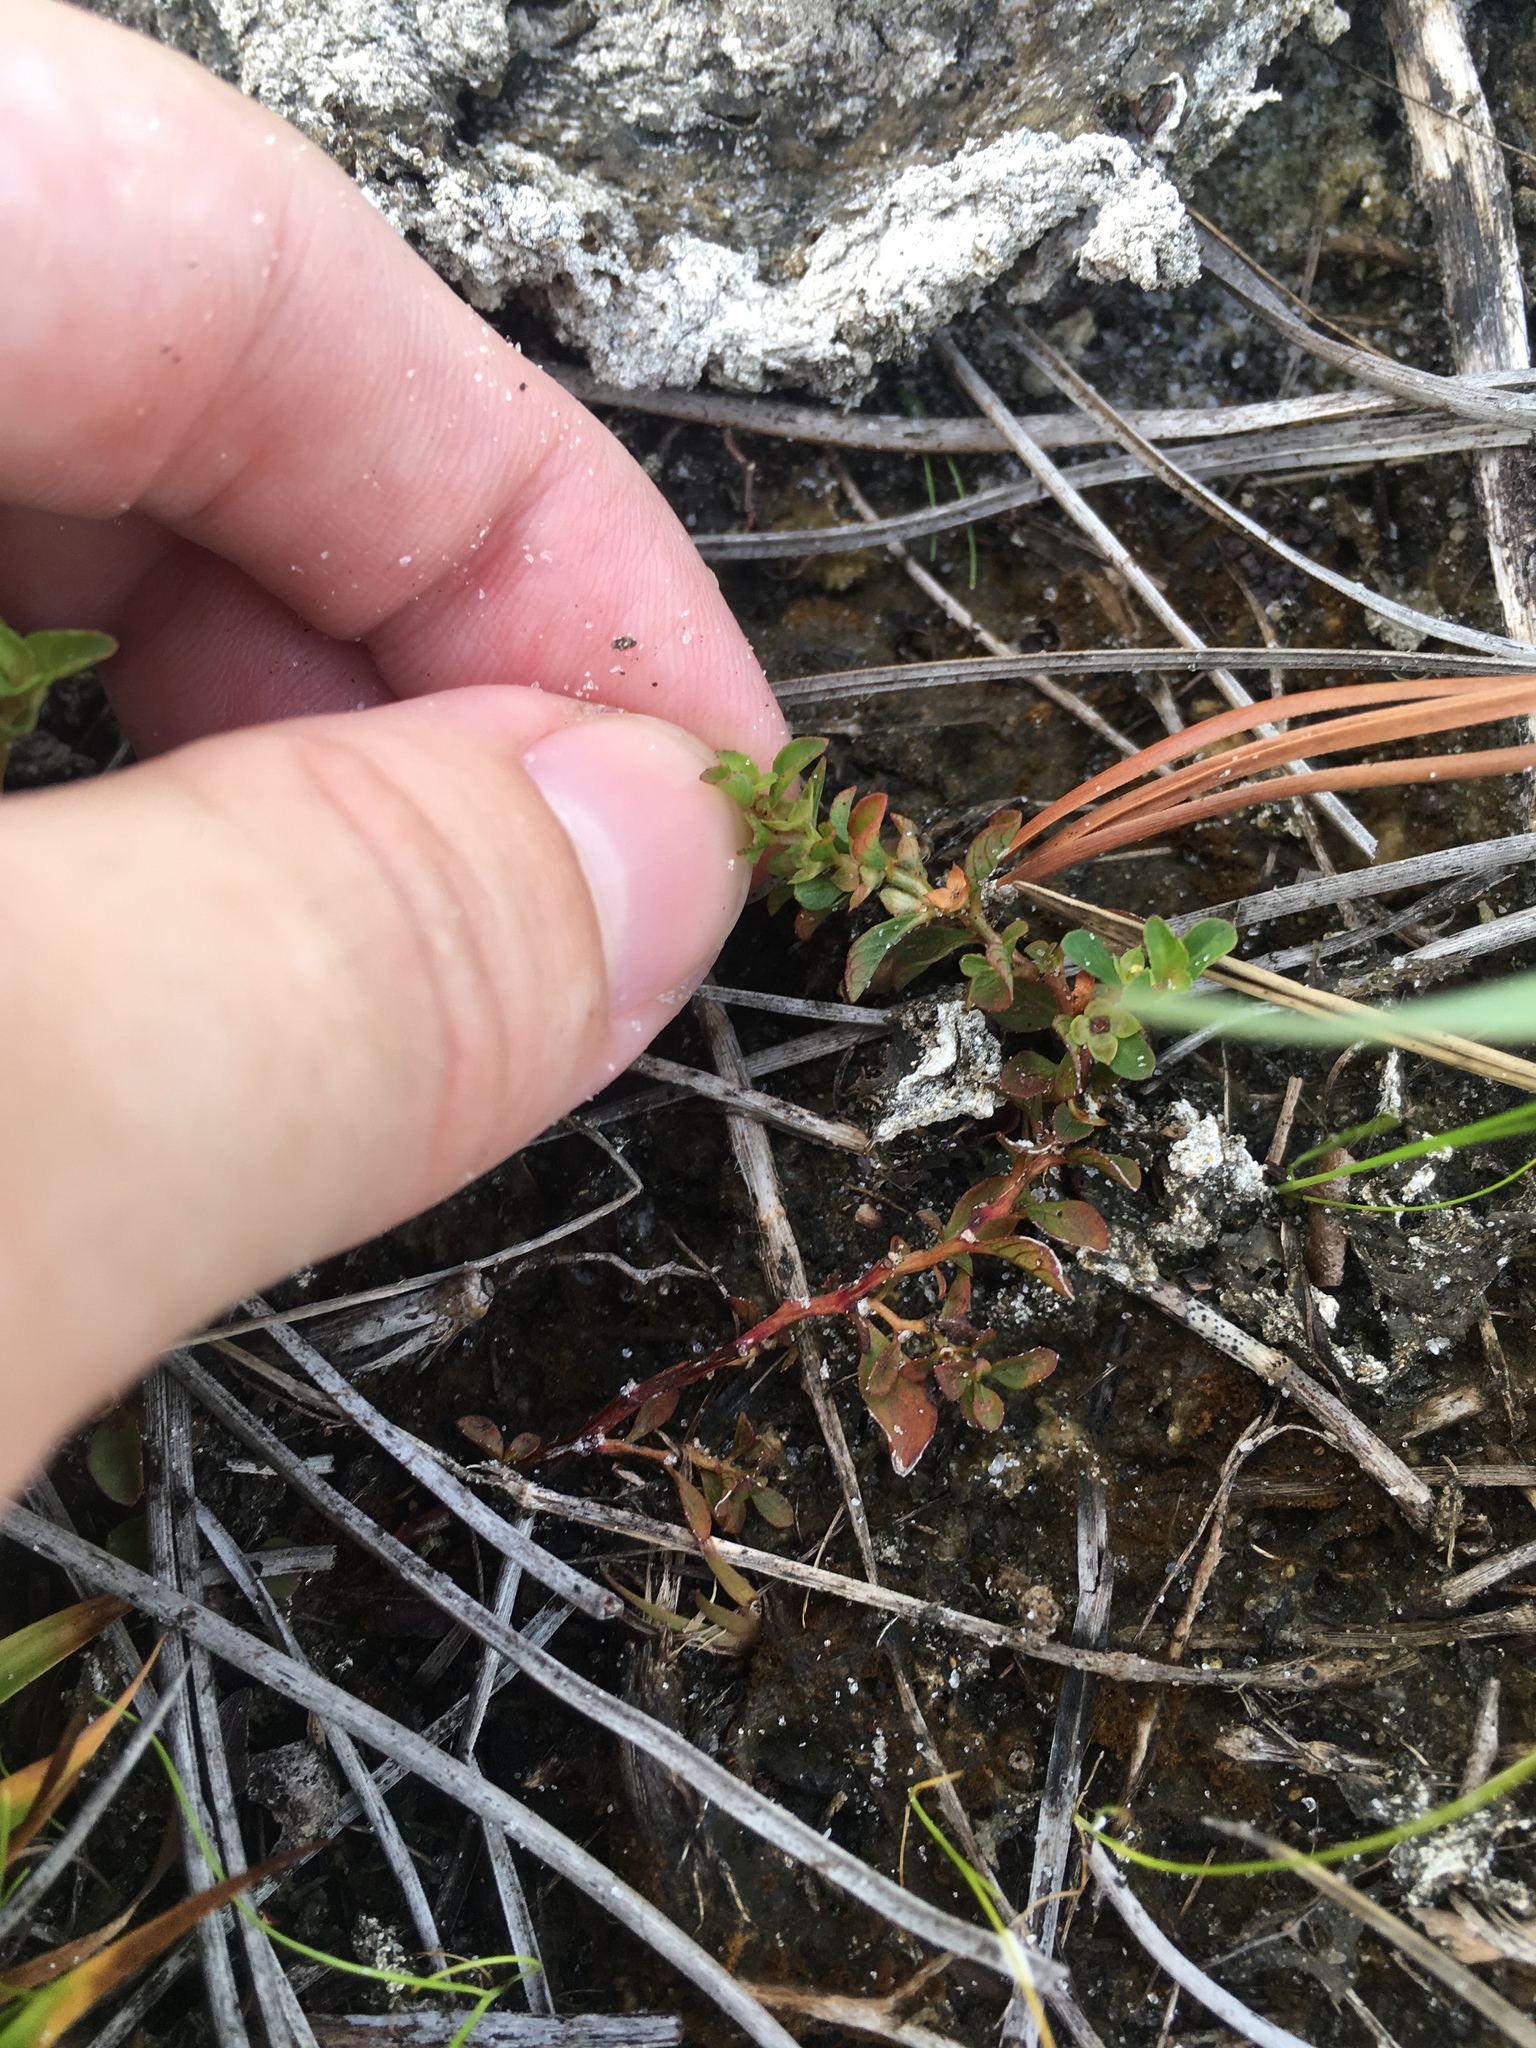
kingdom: Plantae
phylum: Tracheophyta
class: Magnoliopsida
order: Myrtales
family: Onagraceae
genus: Ludwigia
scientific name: Ludwigia microcarpa
